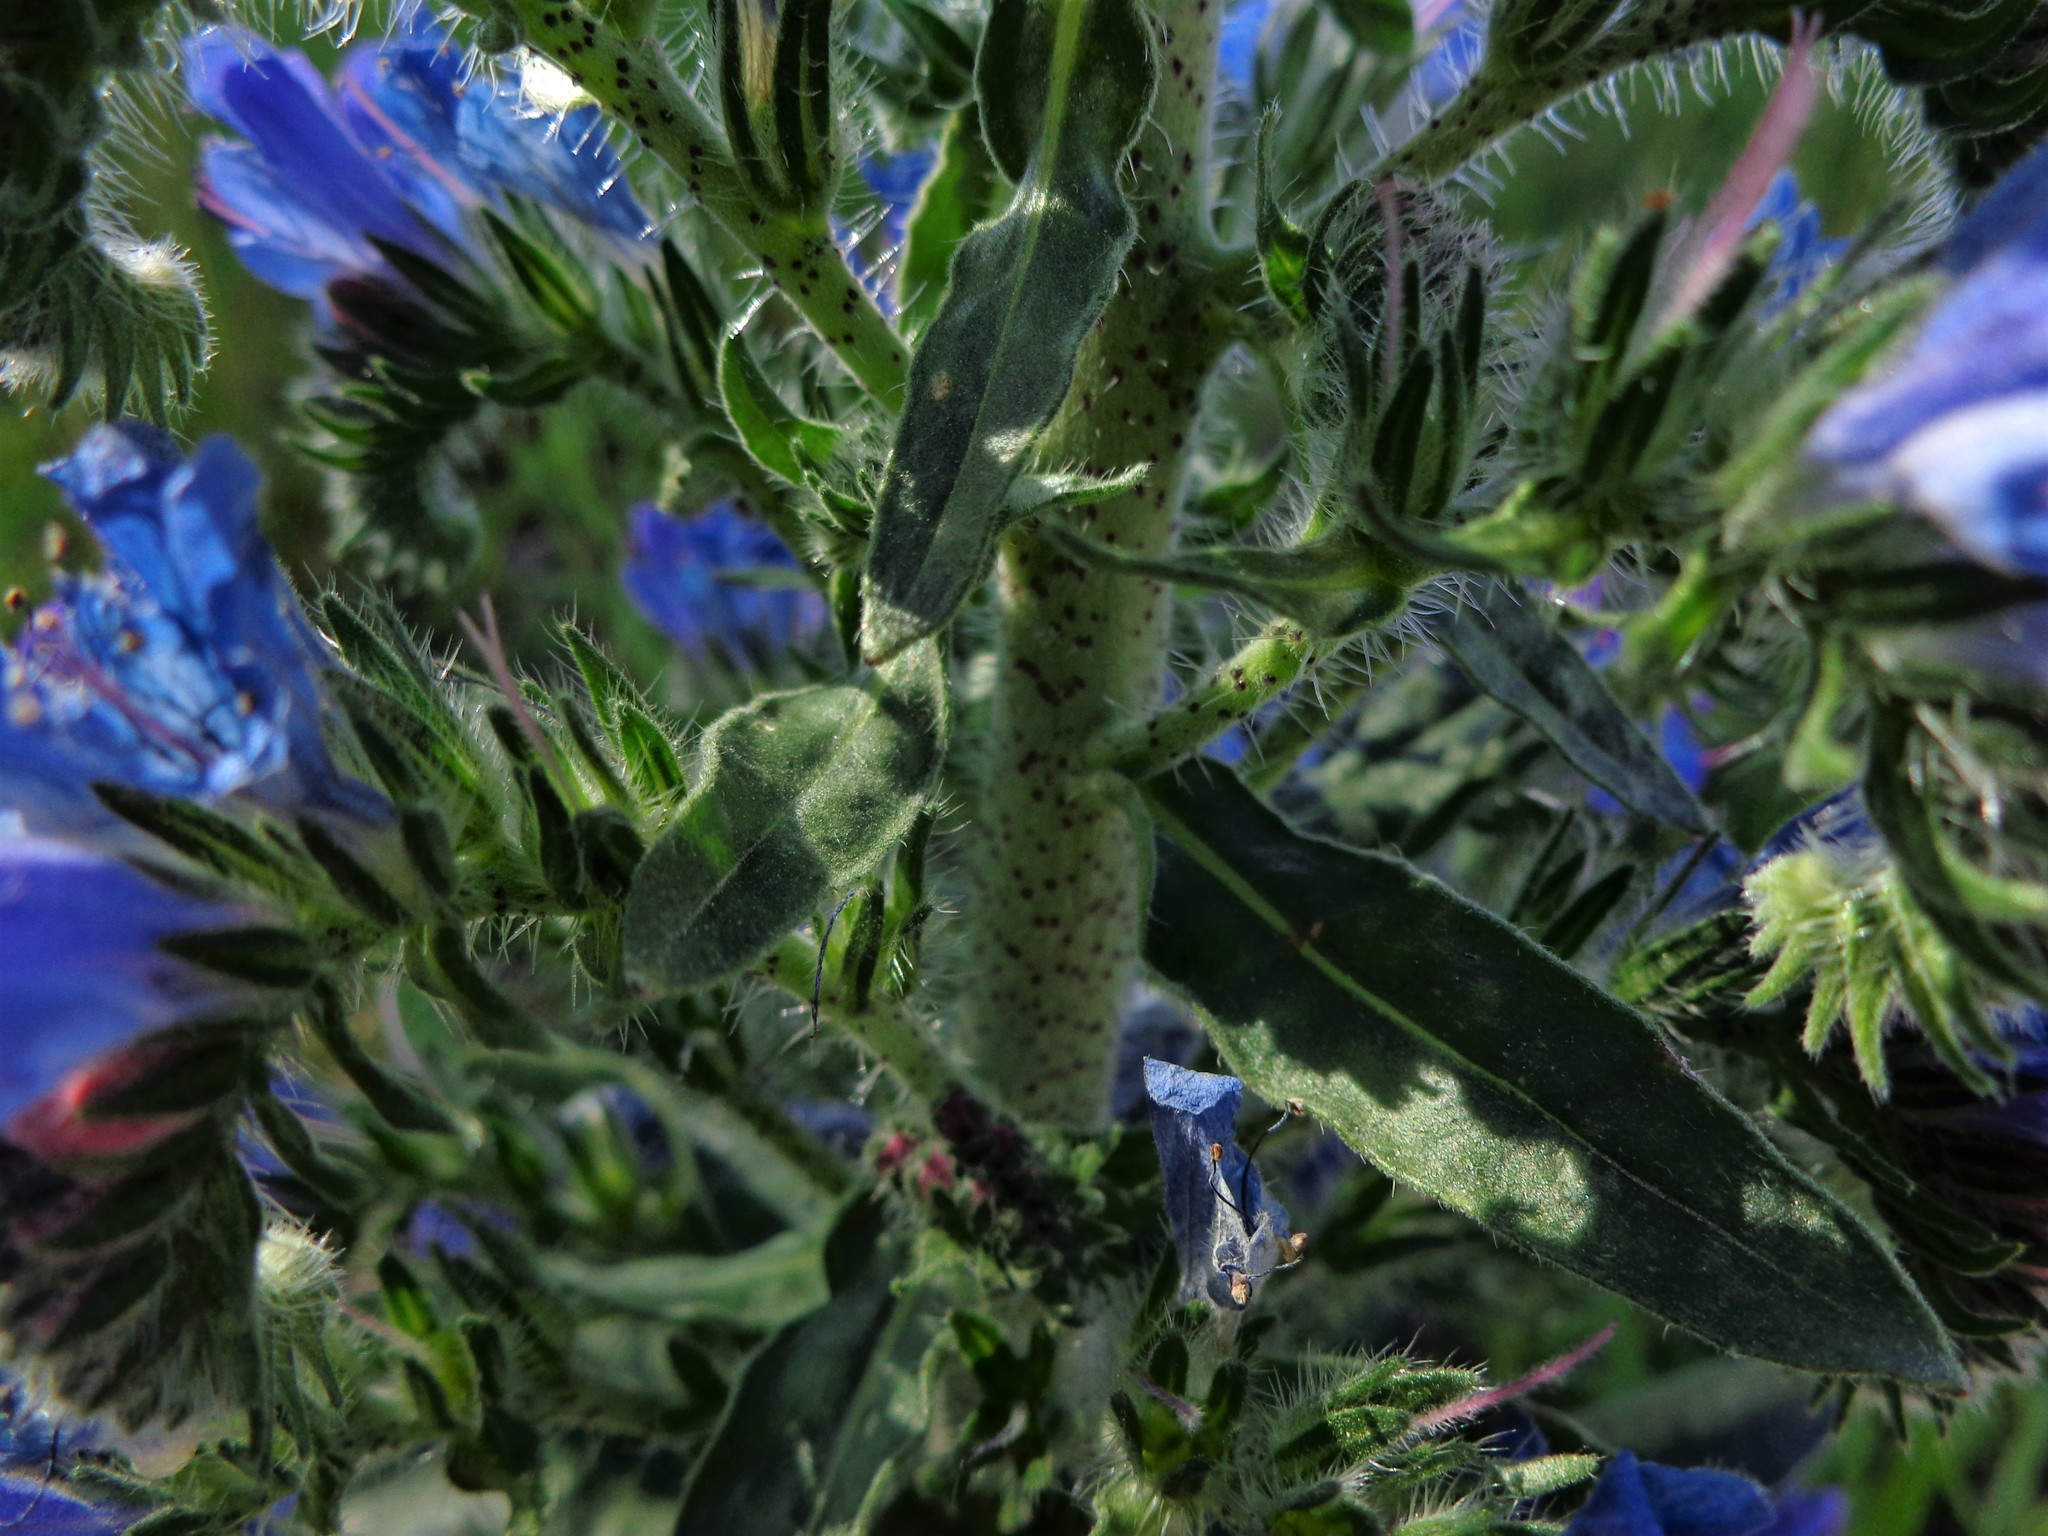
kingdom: Plantae
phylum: Tracheophyta
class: Magnoliopsida
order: Boraginales
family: Boraginaceae
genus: Echium
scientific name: Echium vulgare
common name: Common viper's bugloss
